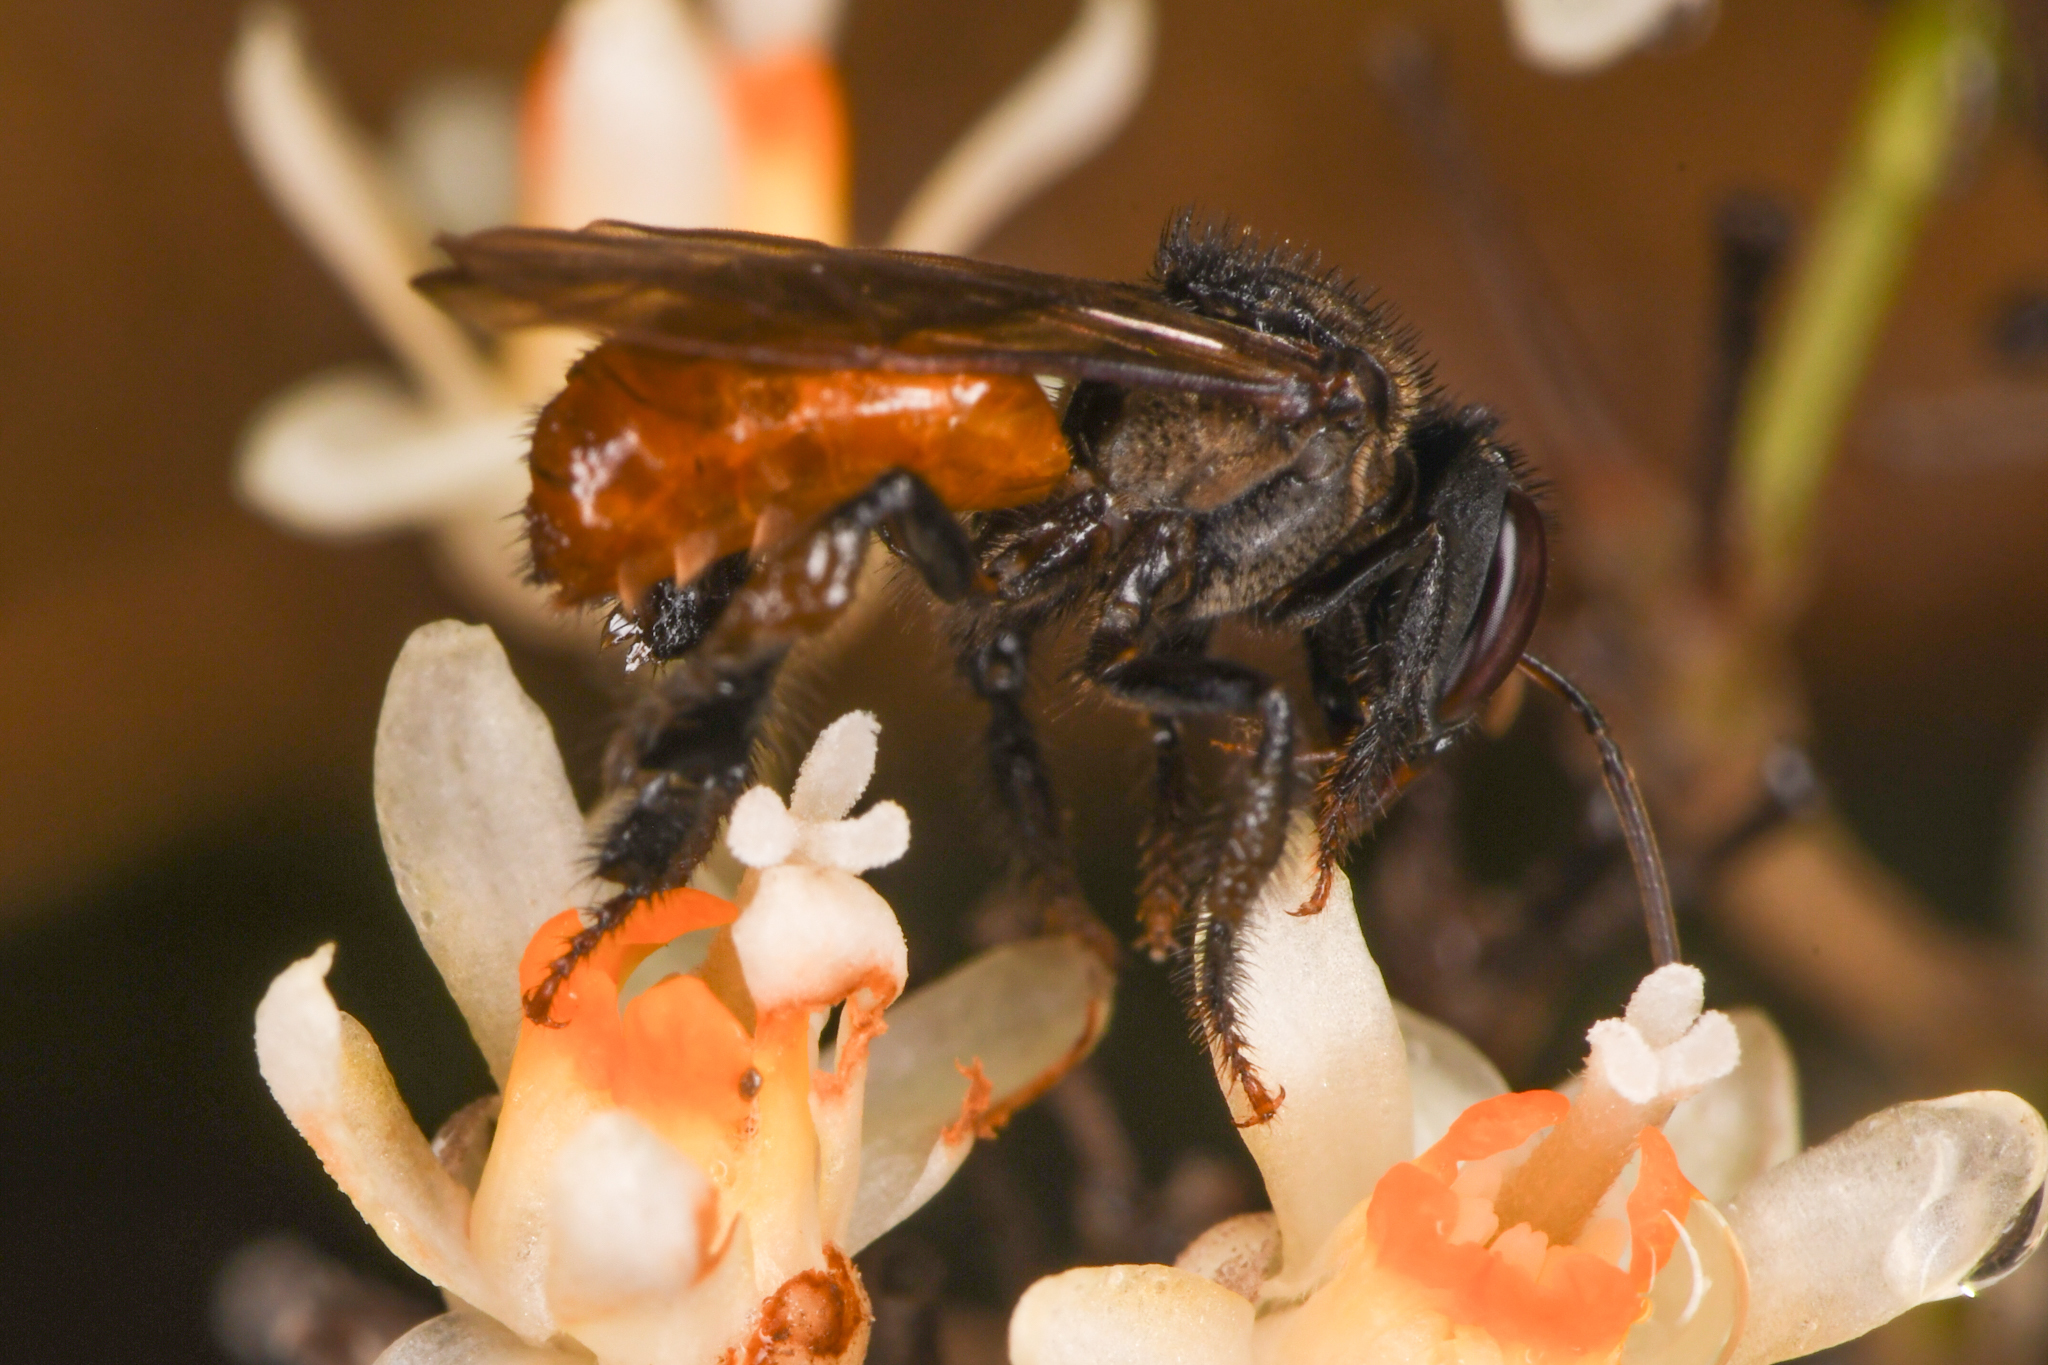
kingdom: Animalia
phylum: Arthropoda
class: Insecta
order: Hymenoptera
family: Apidae
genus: Trigona
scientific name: Trigona fulviventris
